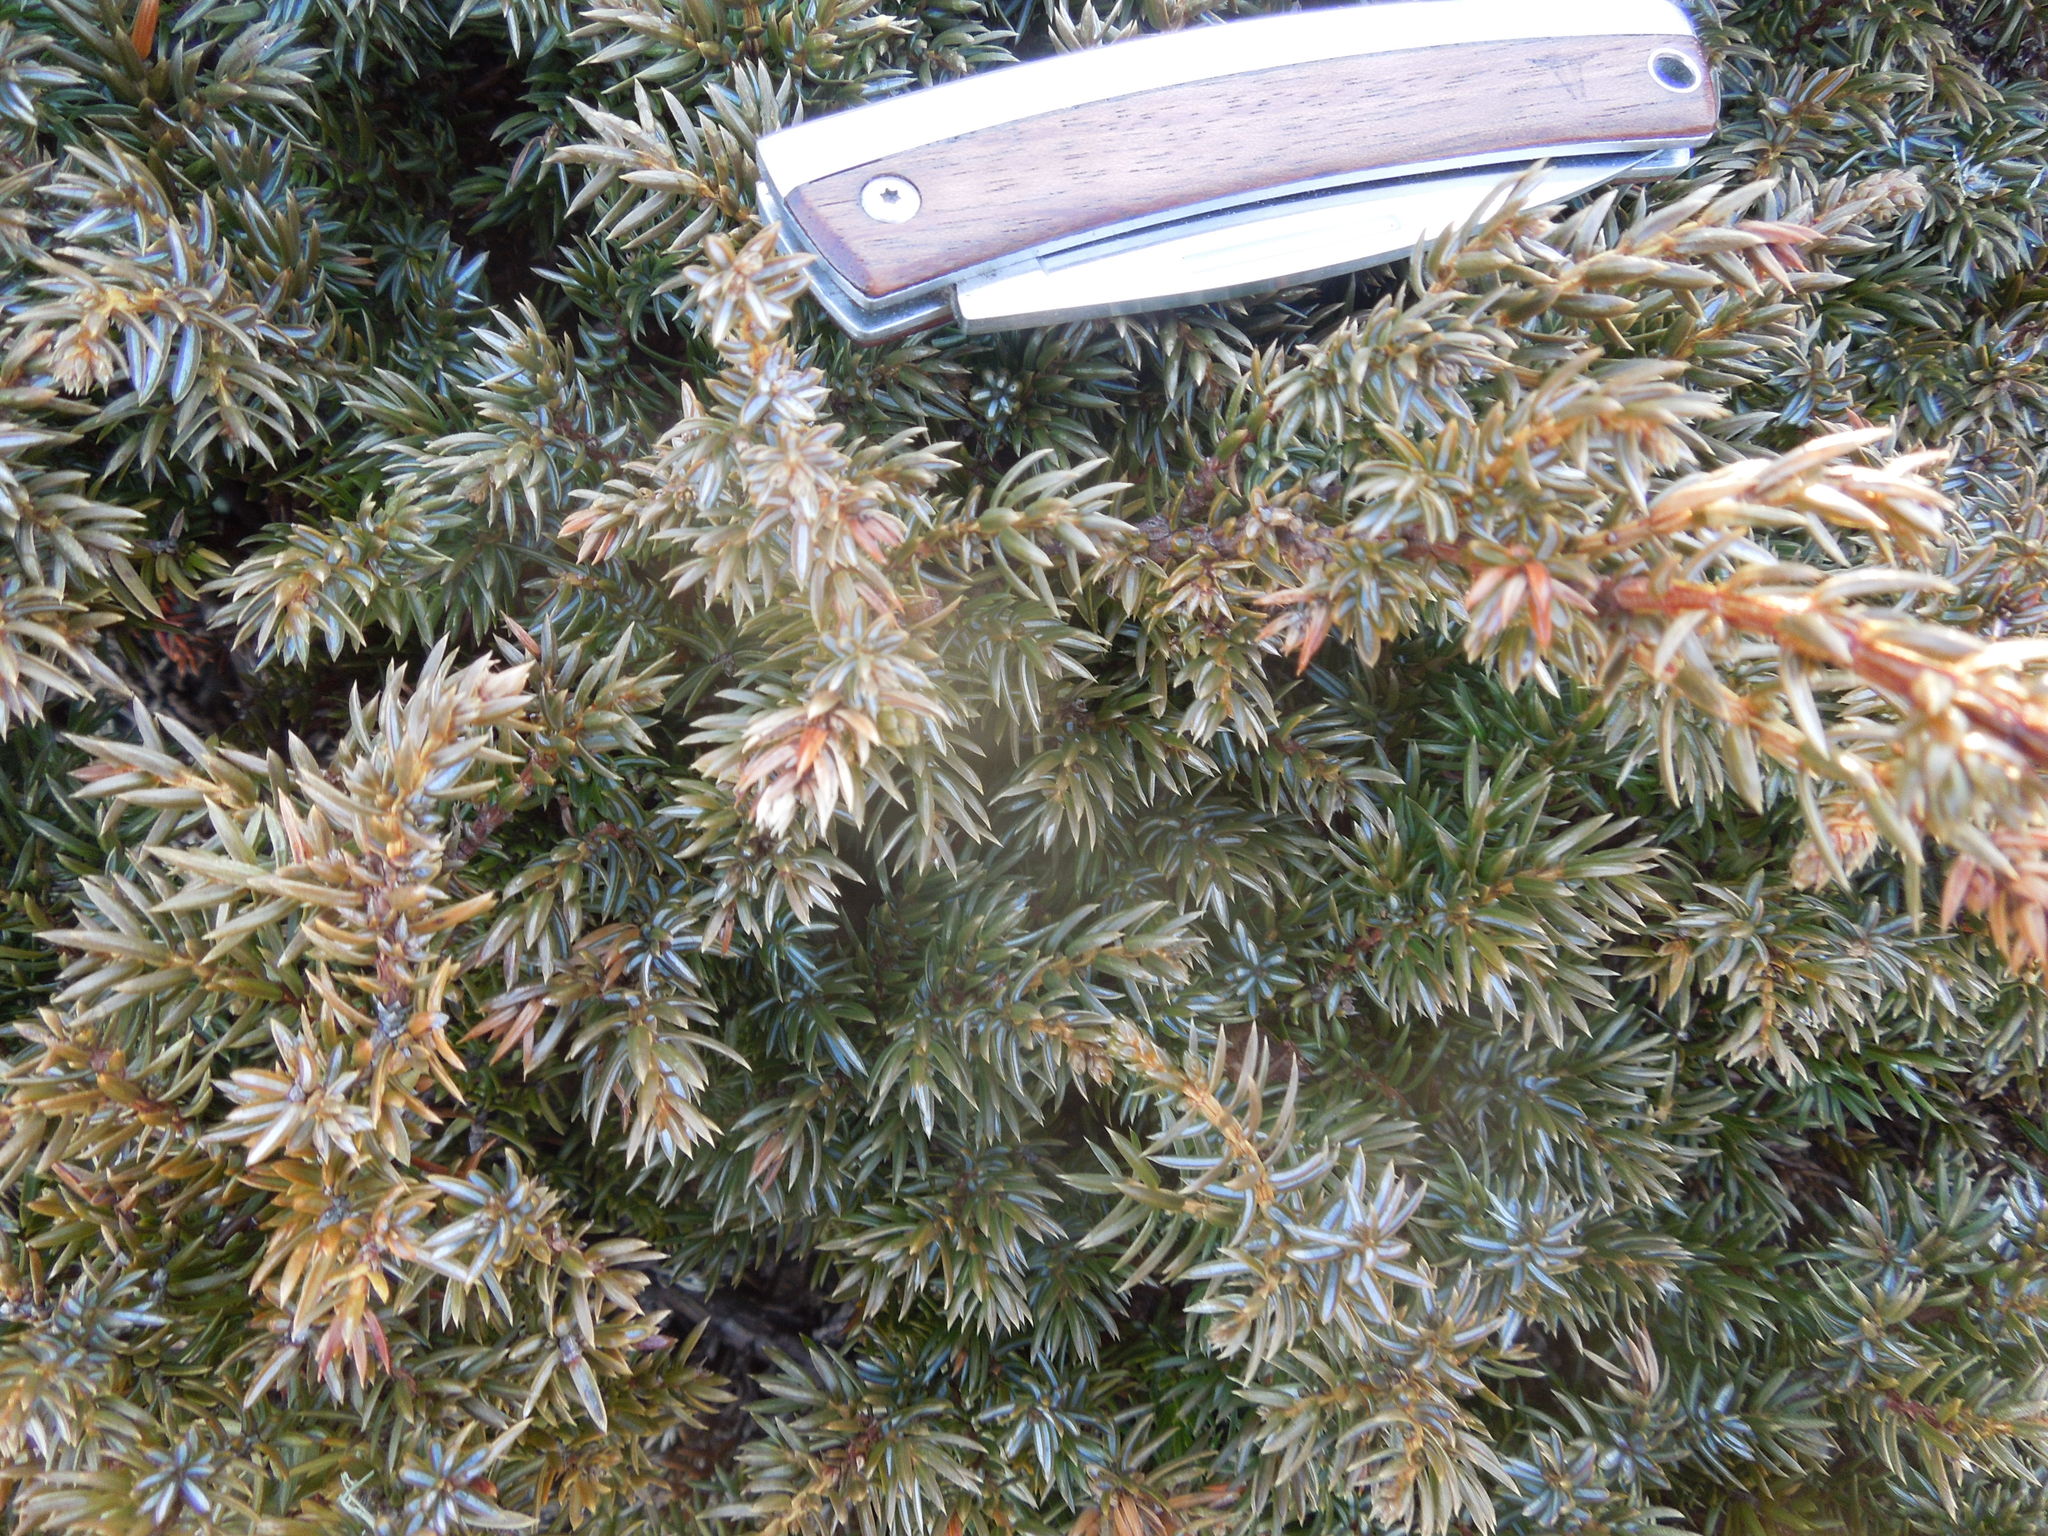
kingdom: Plantae
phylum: Tracheophyta
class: Pinopsida
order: Pinales
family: Cupressaceae
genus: Juniperus
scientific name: Juniperus communis
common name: Common juniper
